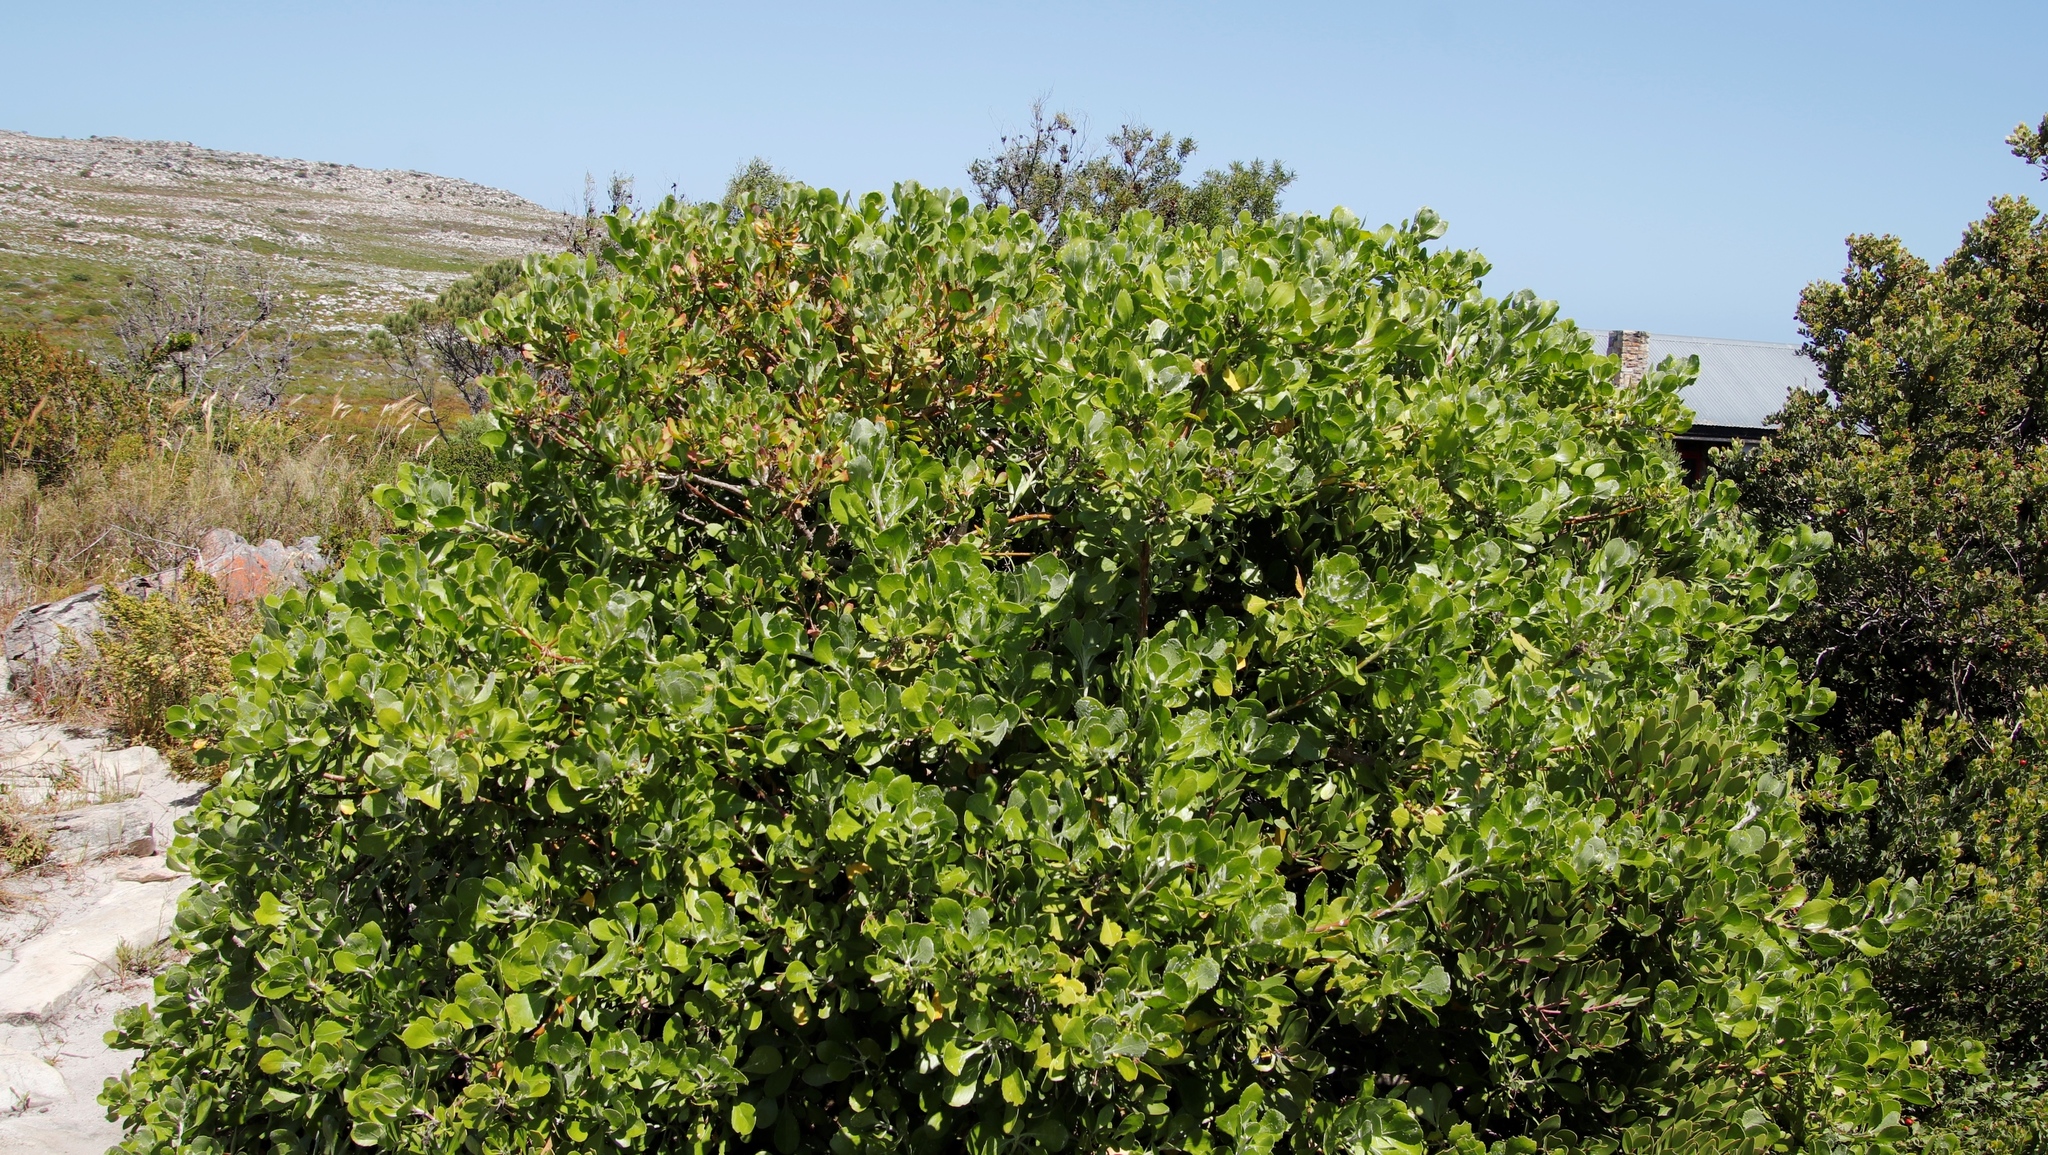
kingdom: Plantae
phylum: Tracheophyta
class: Magnoliopsida
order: Asterales
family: Asteraceae
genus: Osteospermum
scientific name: Osteospermum moniliferum
